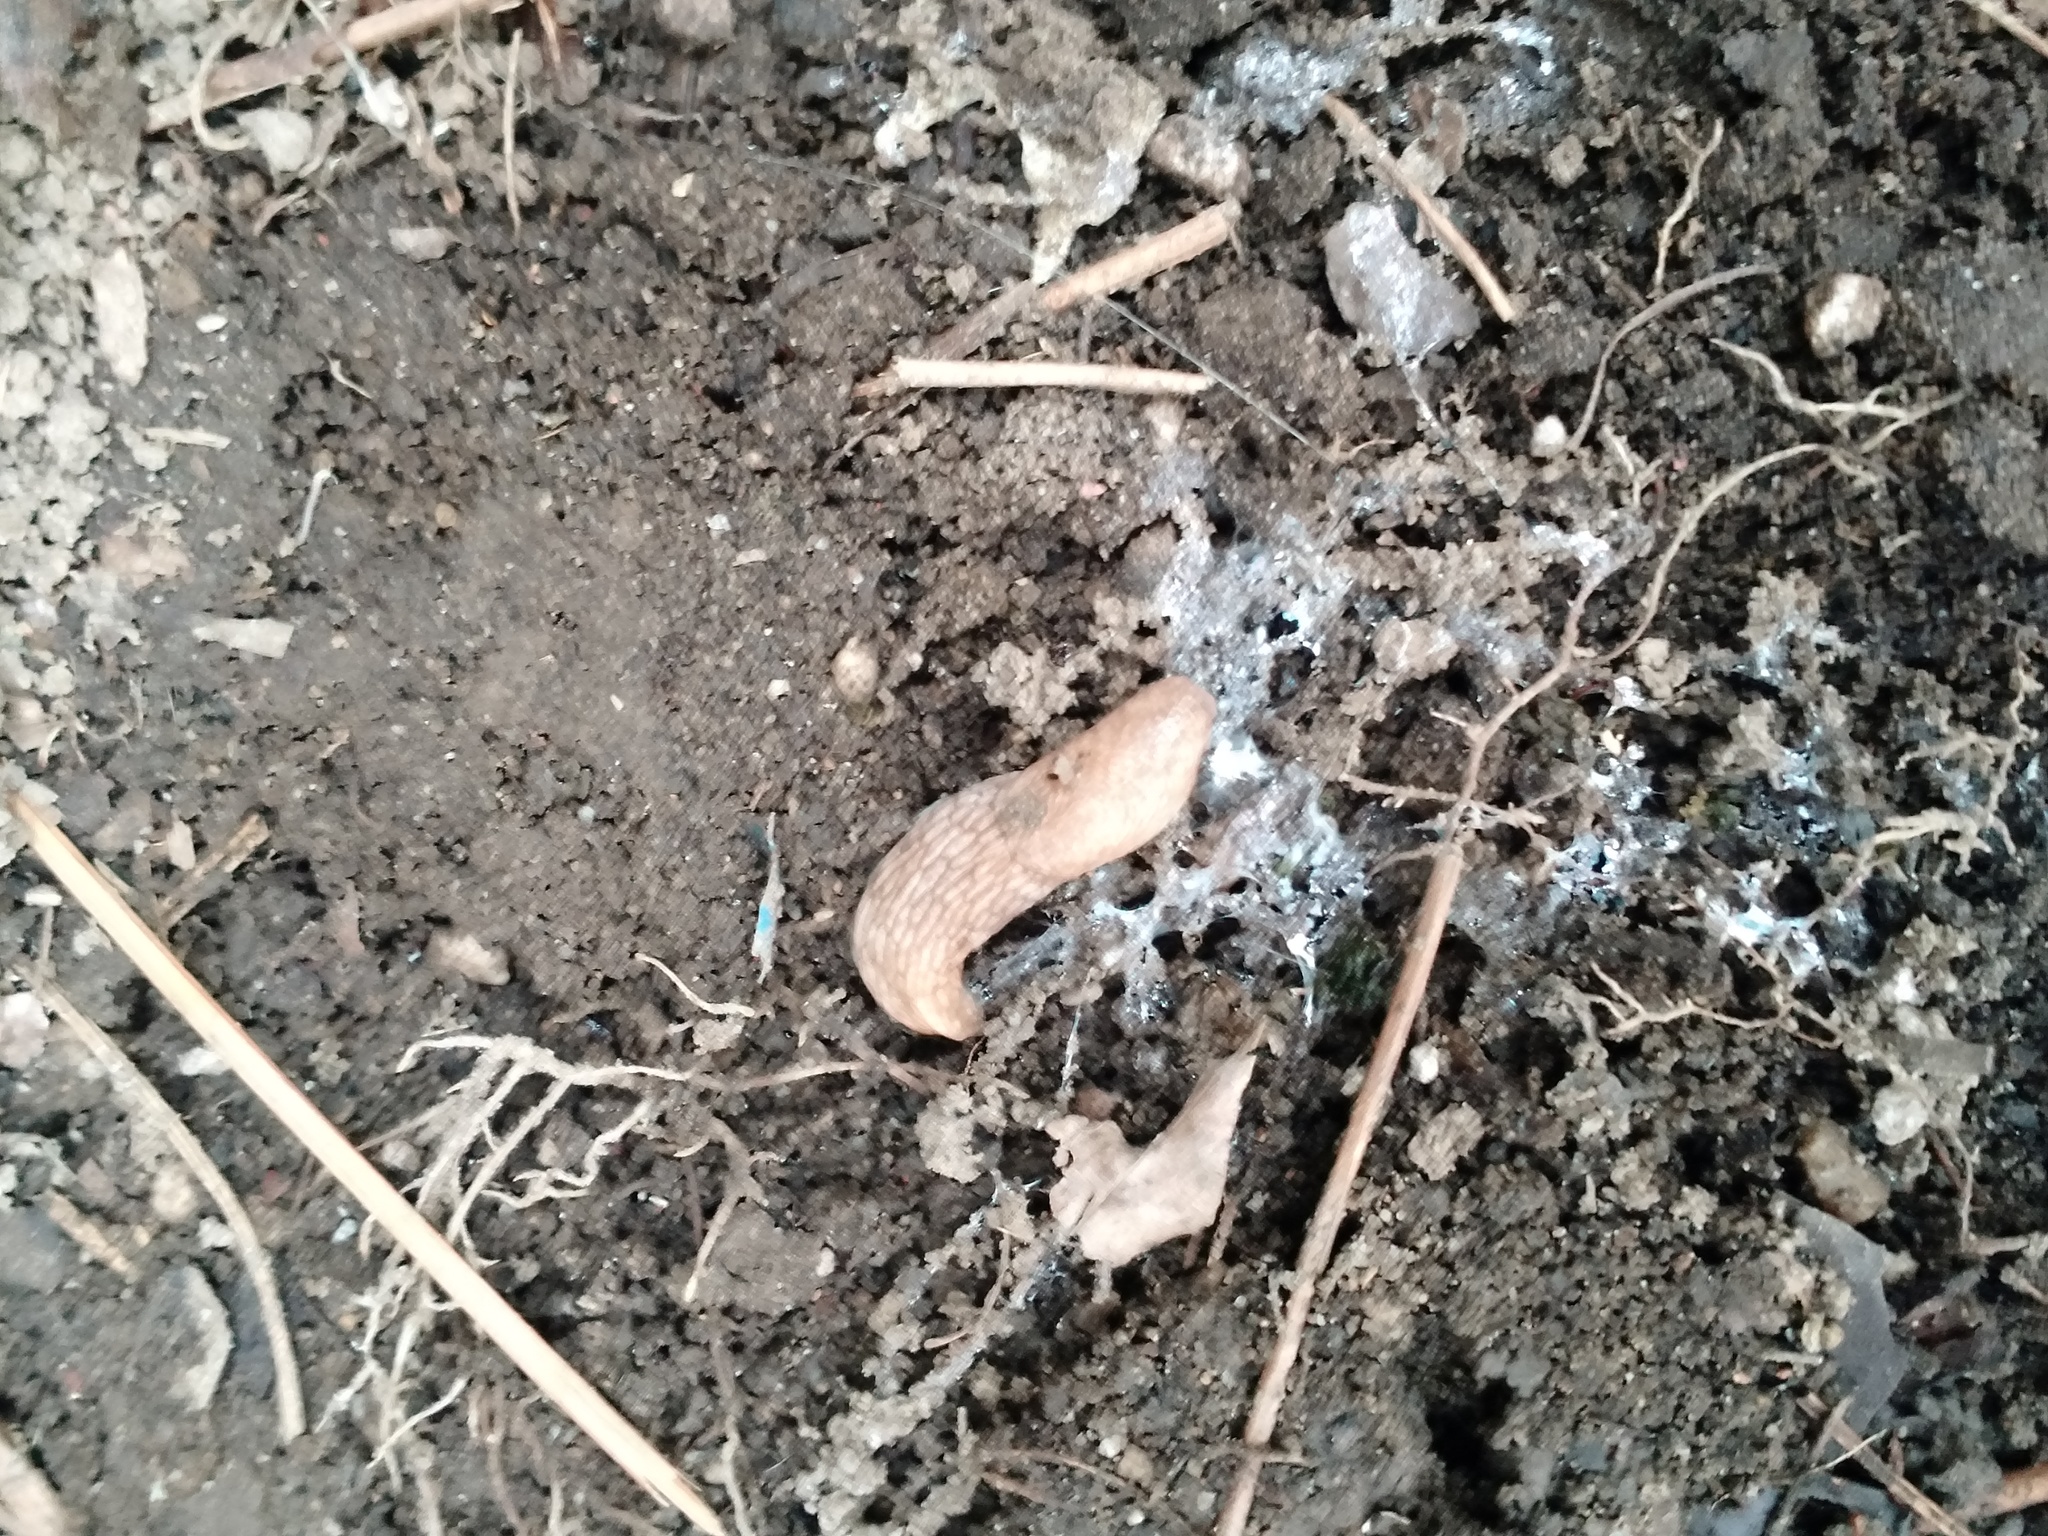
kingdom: Animalia
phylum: Mollusca
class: Gastropoda
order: Stylommatophora
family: Agriolimacidae
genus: Deroceras
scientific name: Deroceras reticulatum
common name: Gray field slug
